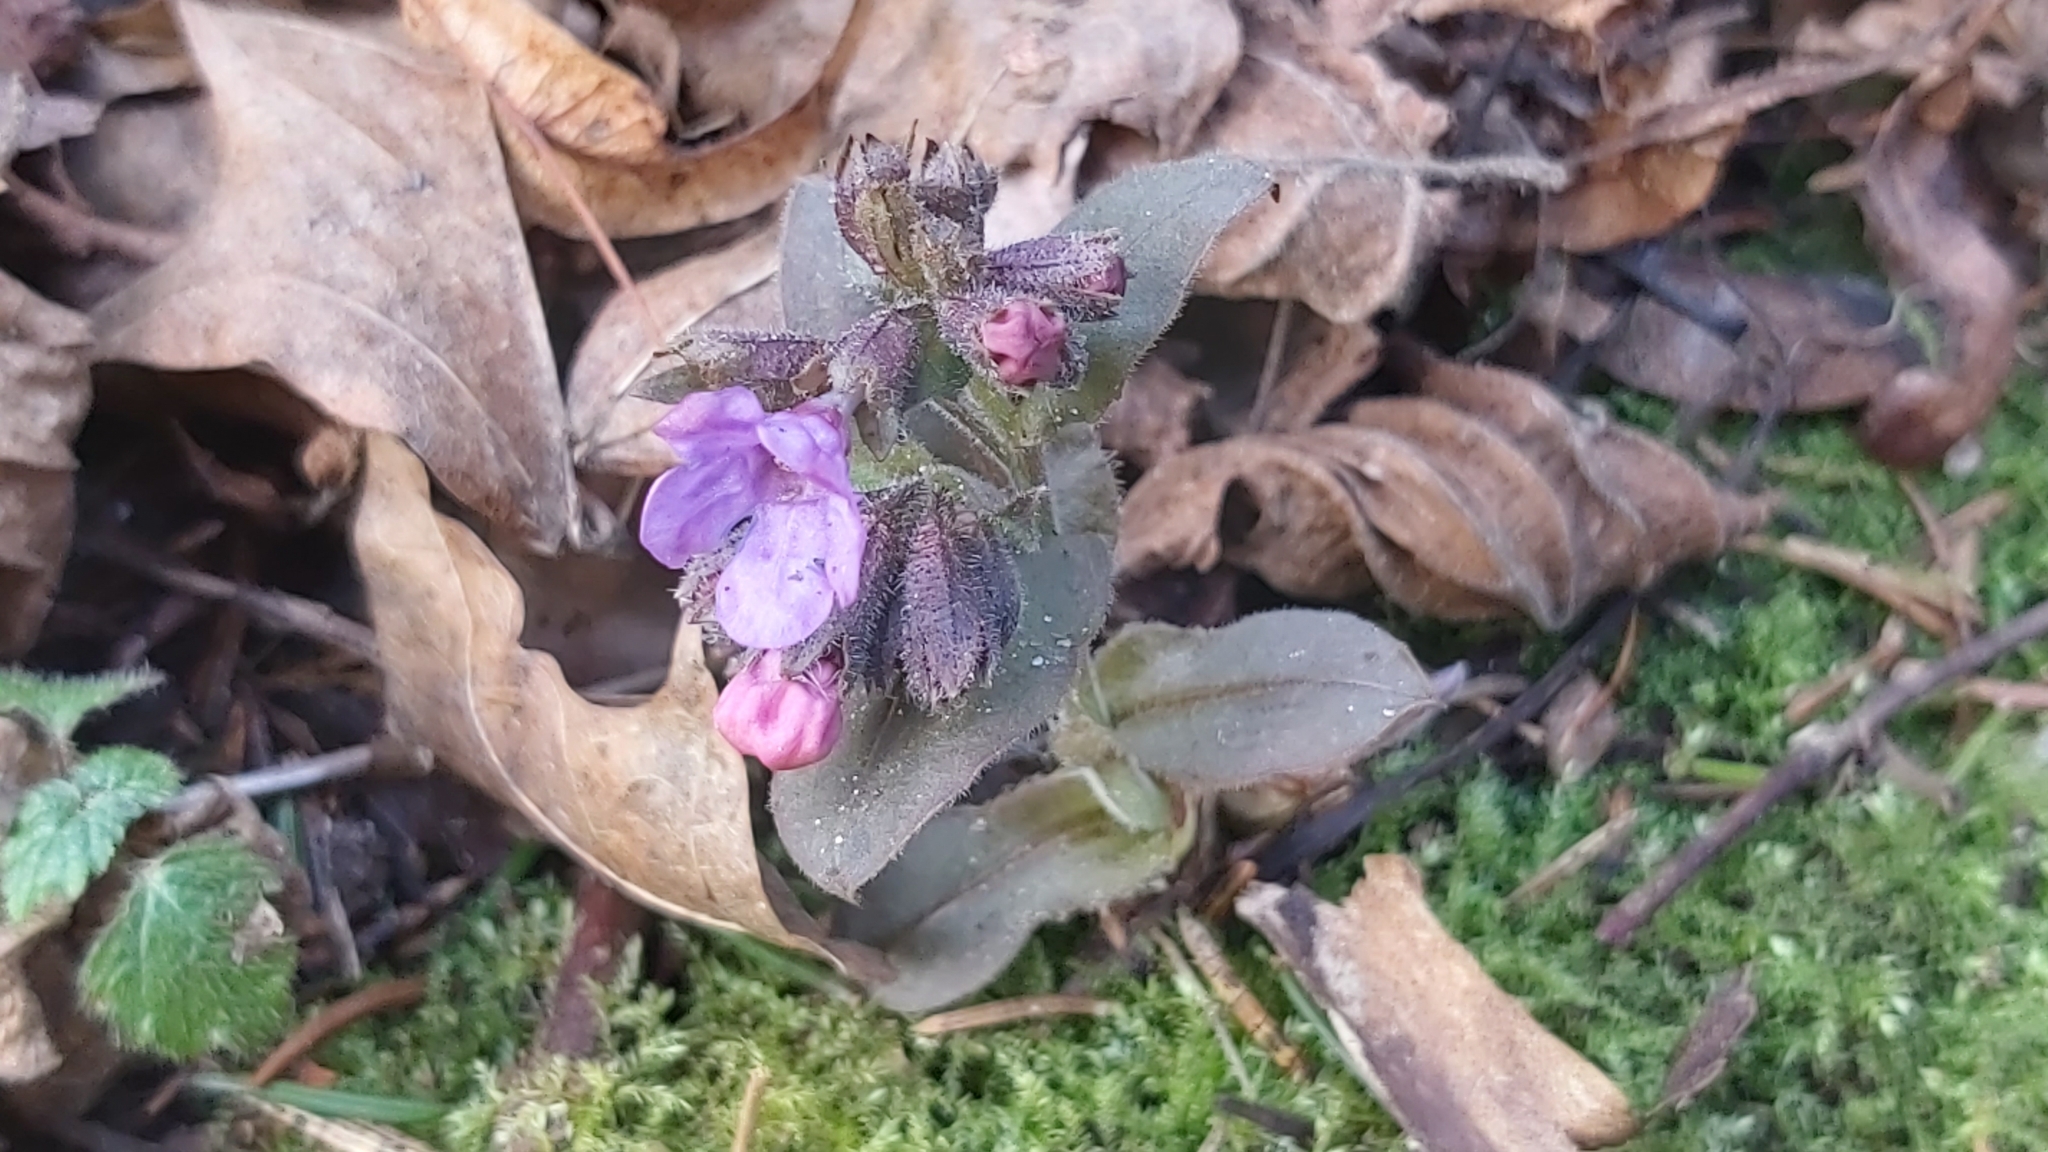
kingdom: Plantae
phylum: Tracheophyta
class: Magnoliopsida
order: Boraginales
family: Boraginaceae
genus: Pulmonaria
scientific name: Pulmonaria obscura
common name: Suffolk lungwort
